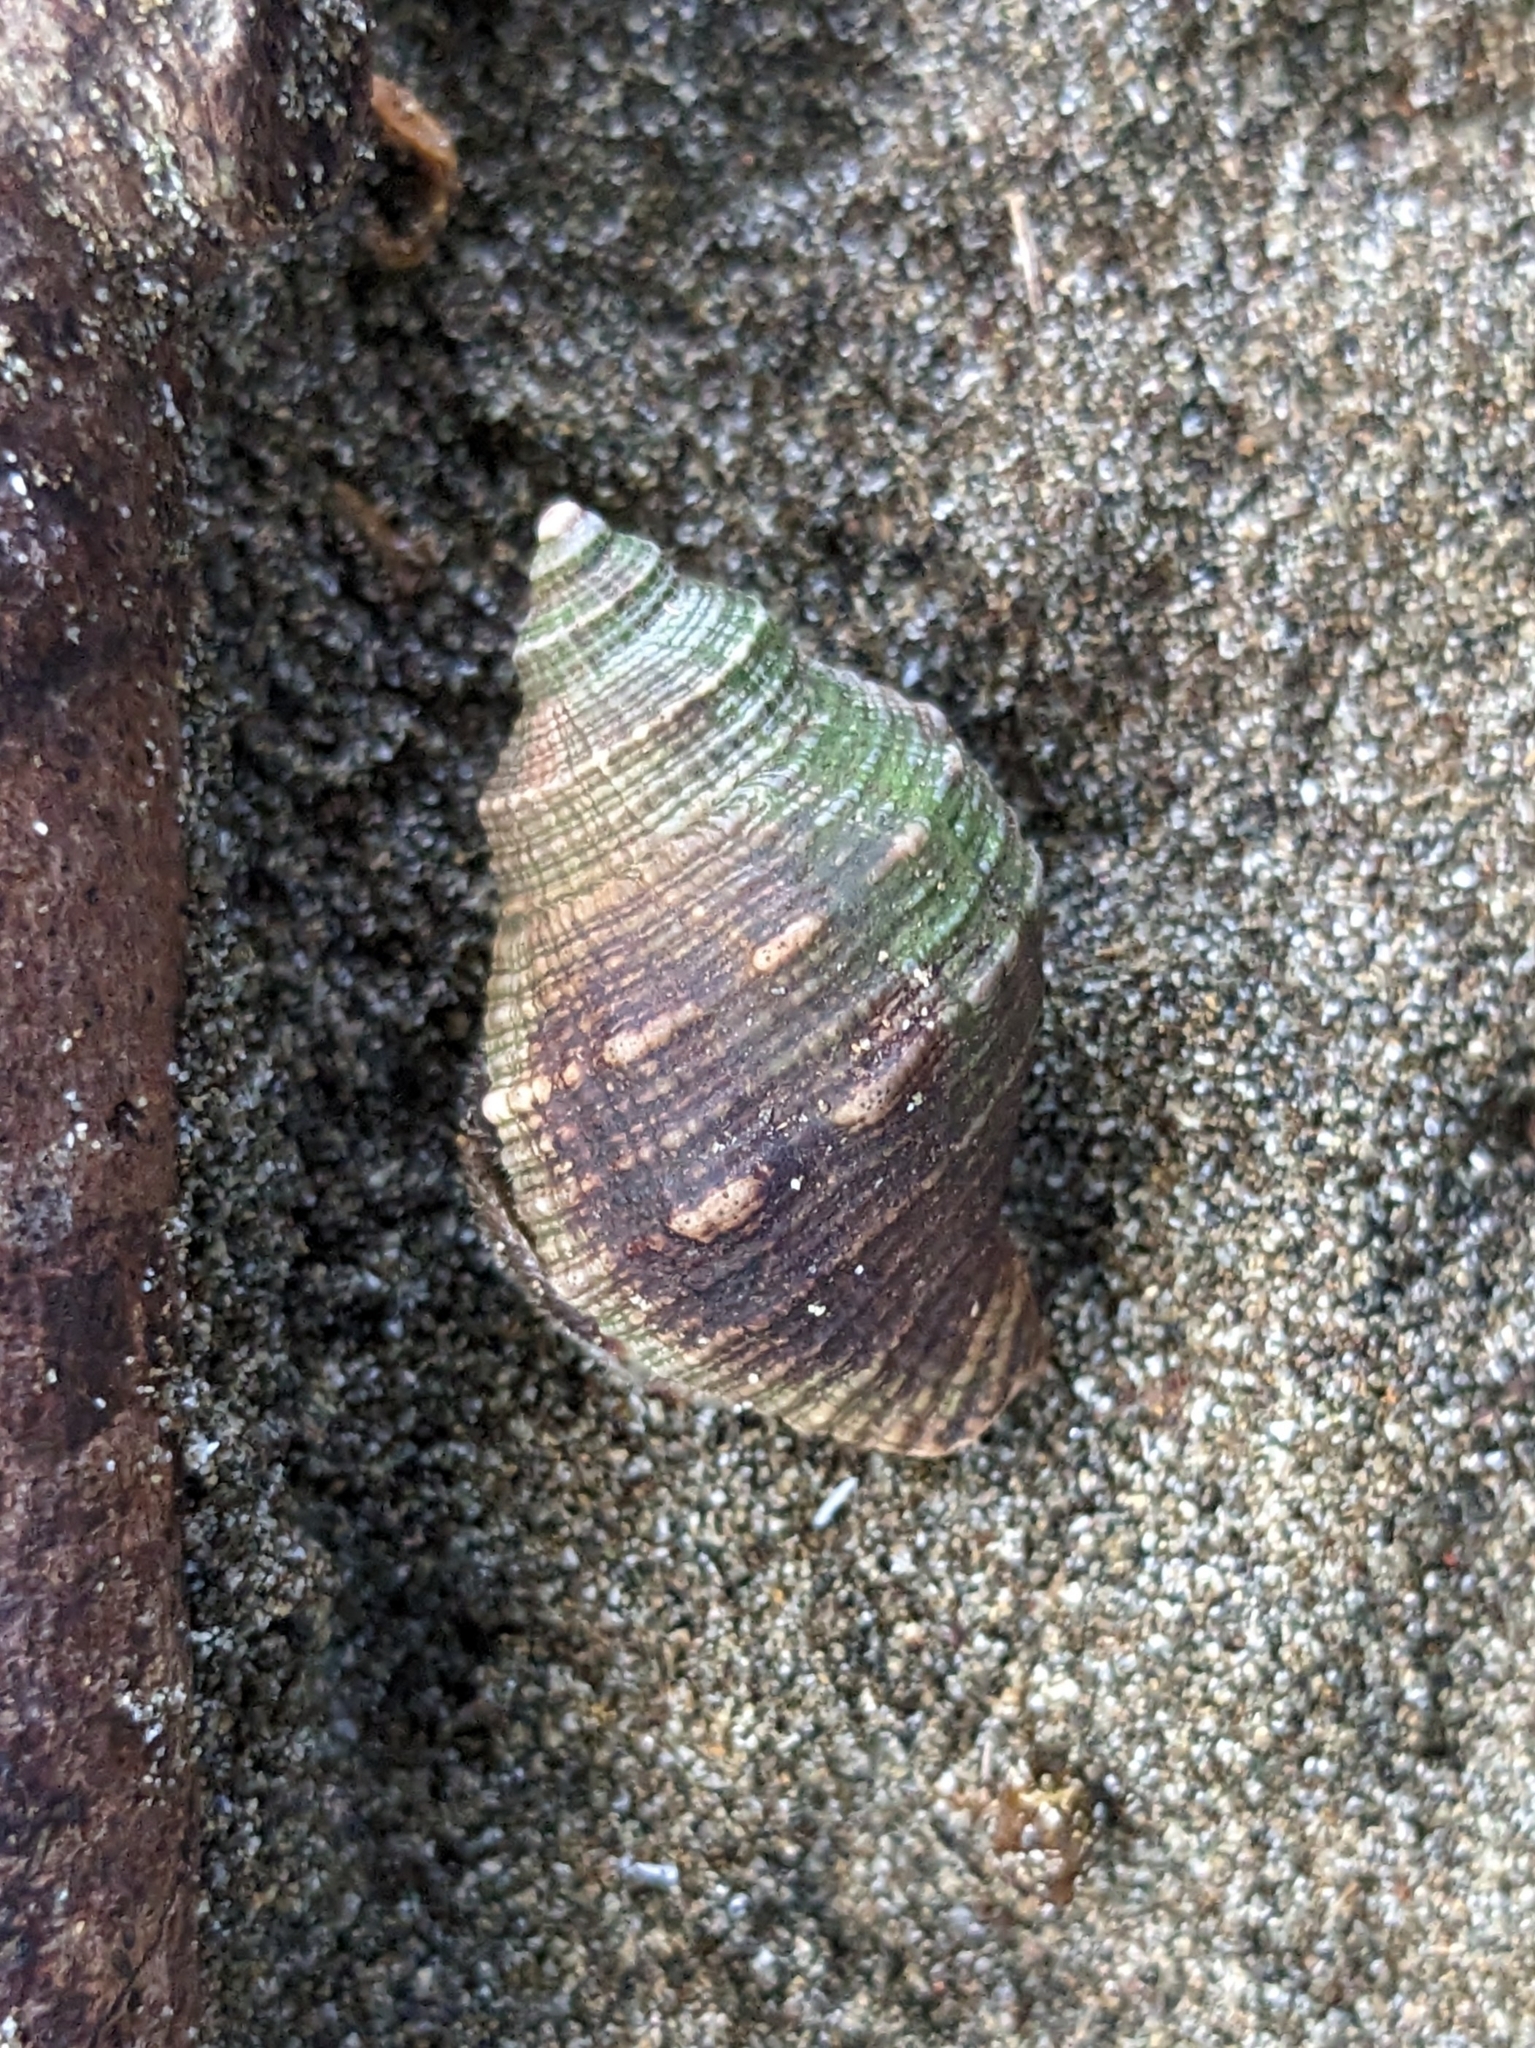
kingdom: Animalia
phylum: Arthropoda
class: Malacostraca
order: Decapoda
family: Coenobitidae
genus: Coenobita
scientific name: Coenobita compressus
